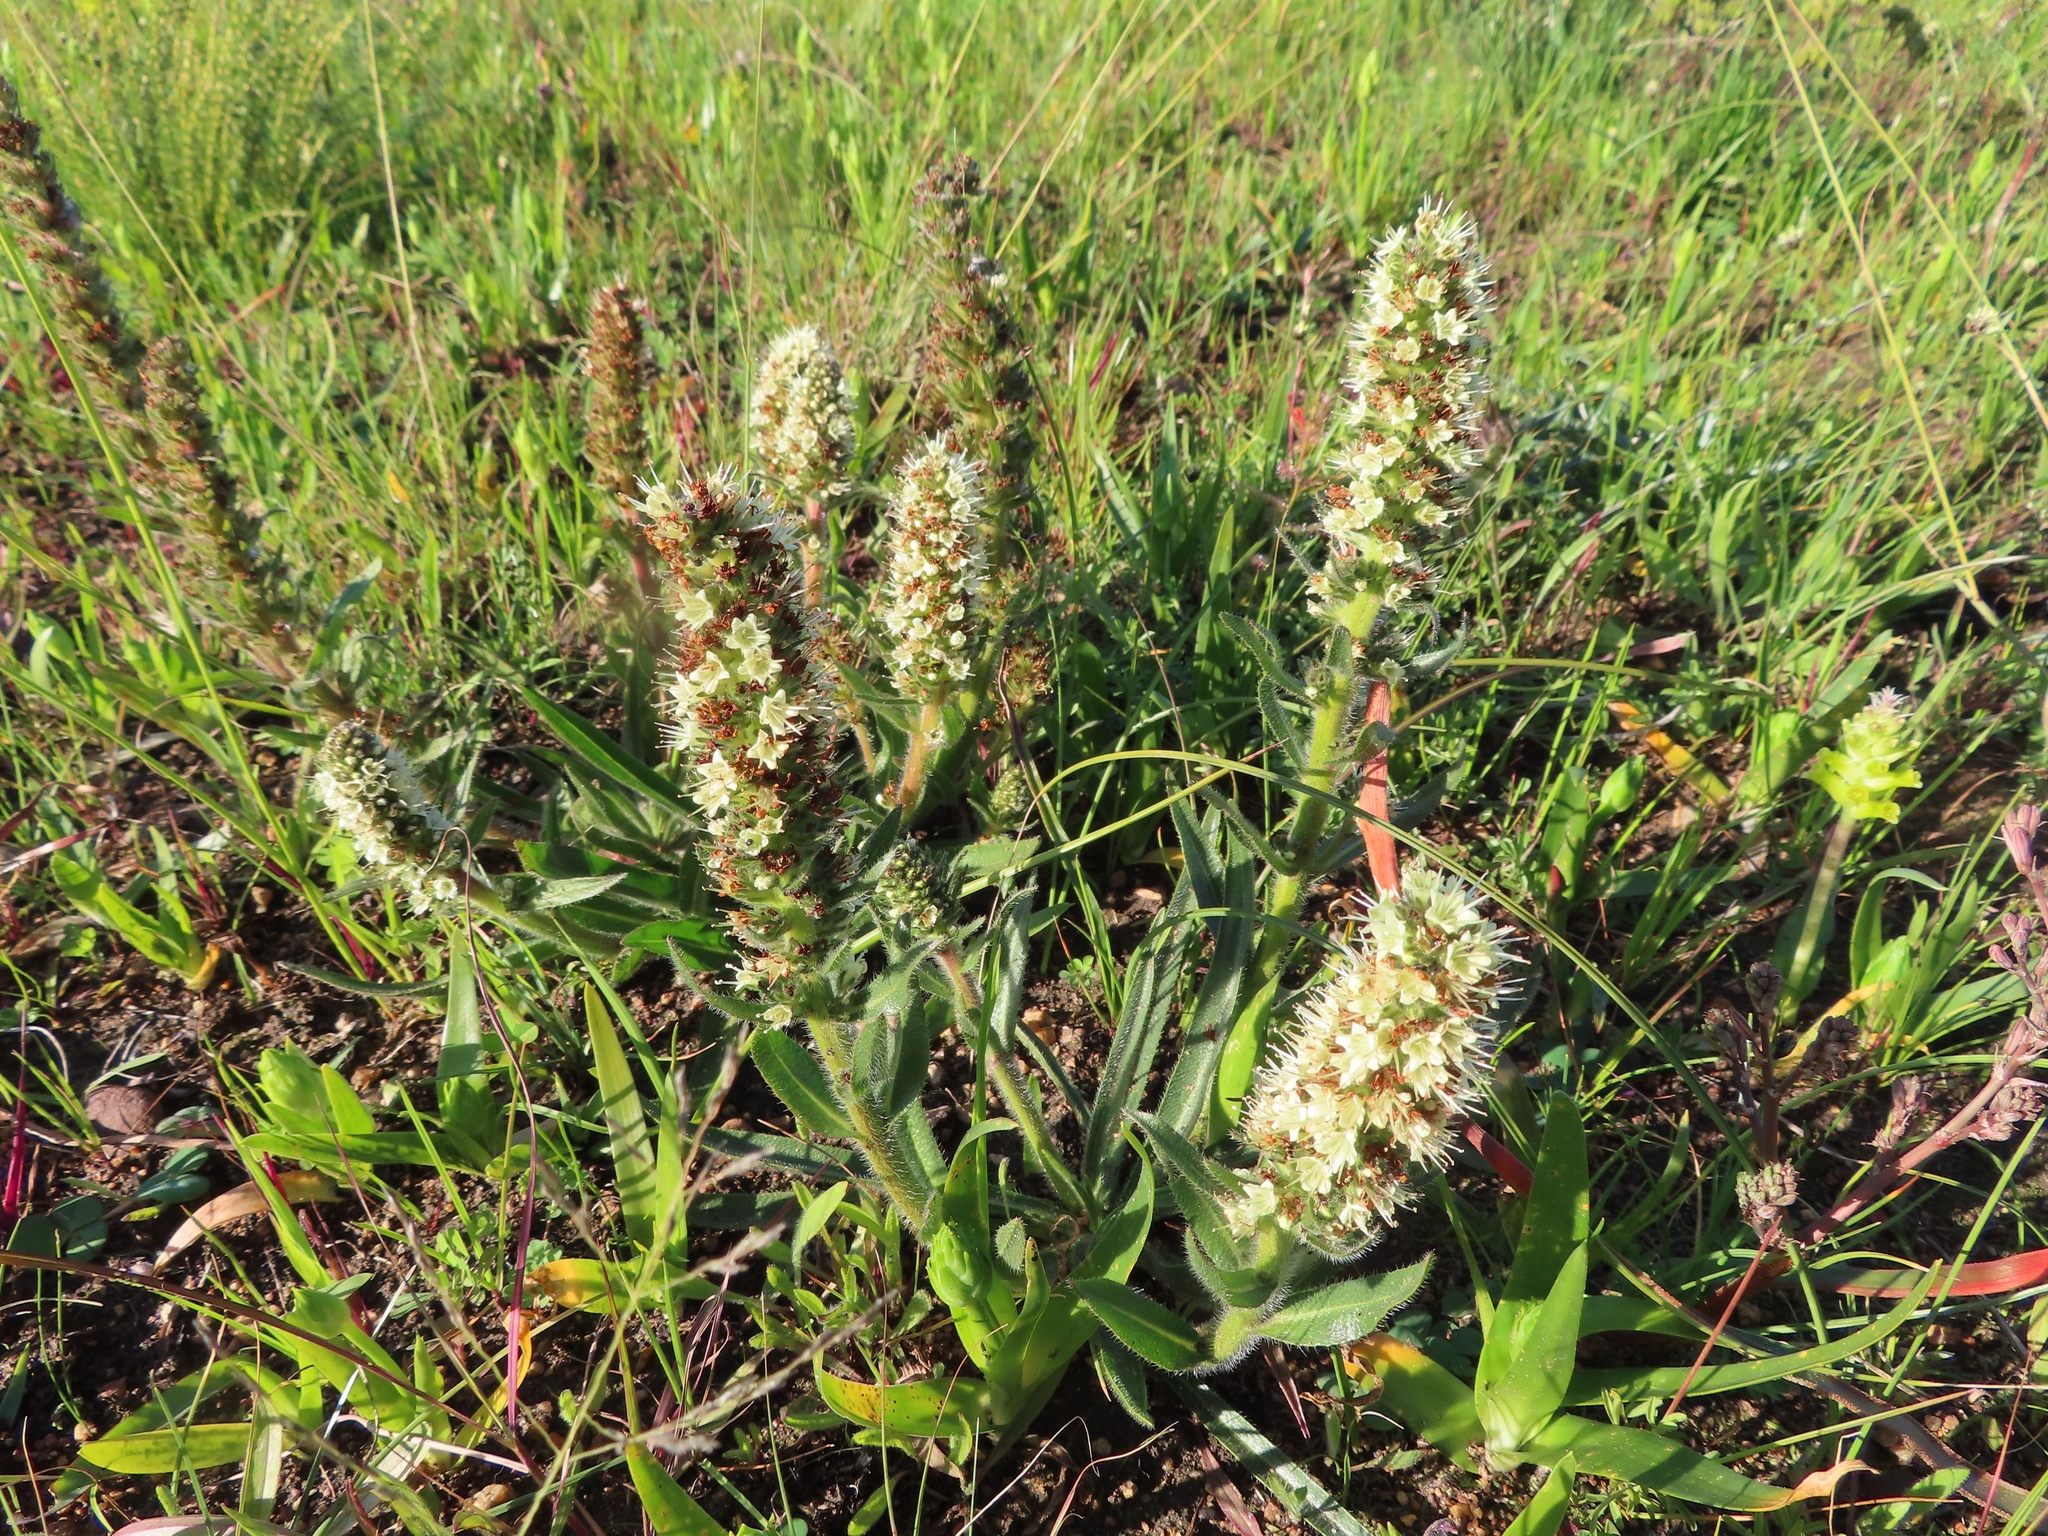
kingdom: Plantae
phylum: Tracheophyta
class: Magnoliopsida
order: Boraginales
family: Boraginaceae
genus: Lobostemon
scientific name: Lobostemon splendens
